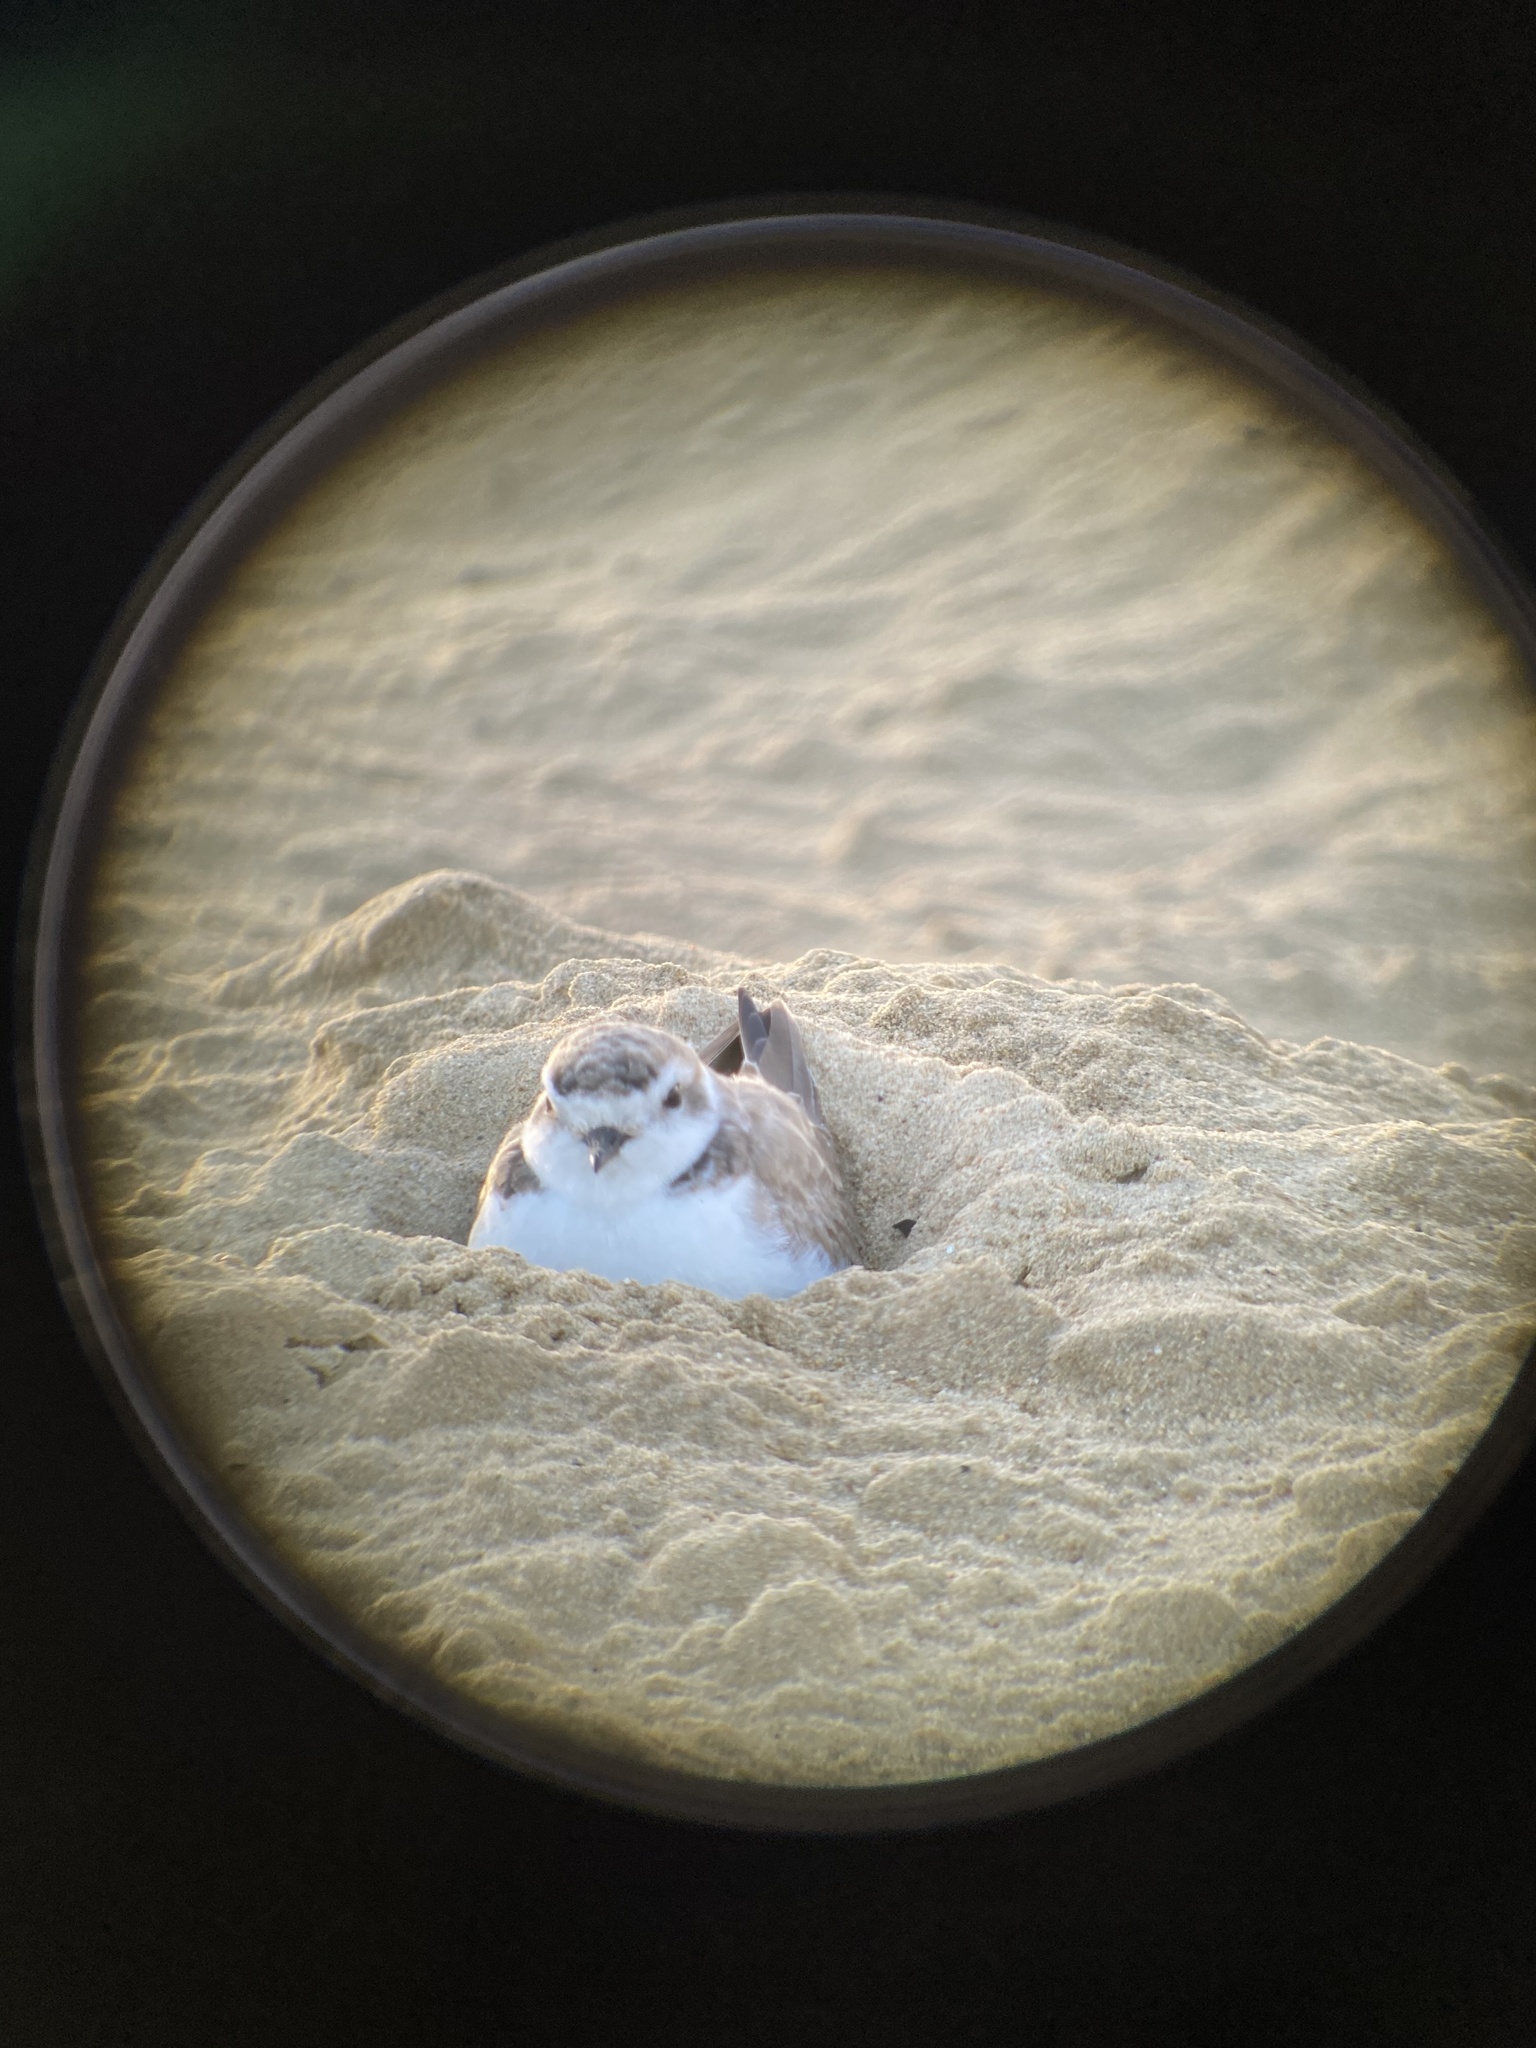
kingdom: Animalia
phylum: Chordata
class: Aves
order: Charadriiformes
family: Charadriidae
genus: Anarhynchus
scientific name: Anarhynchus
